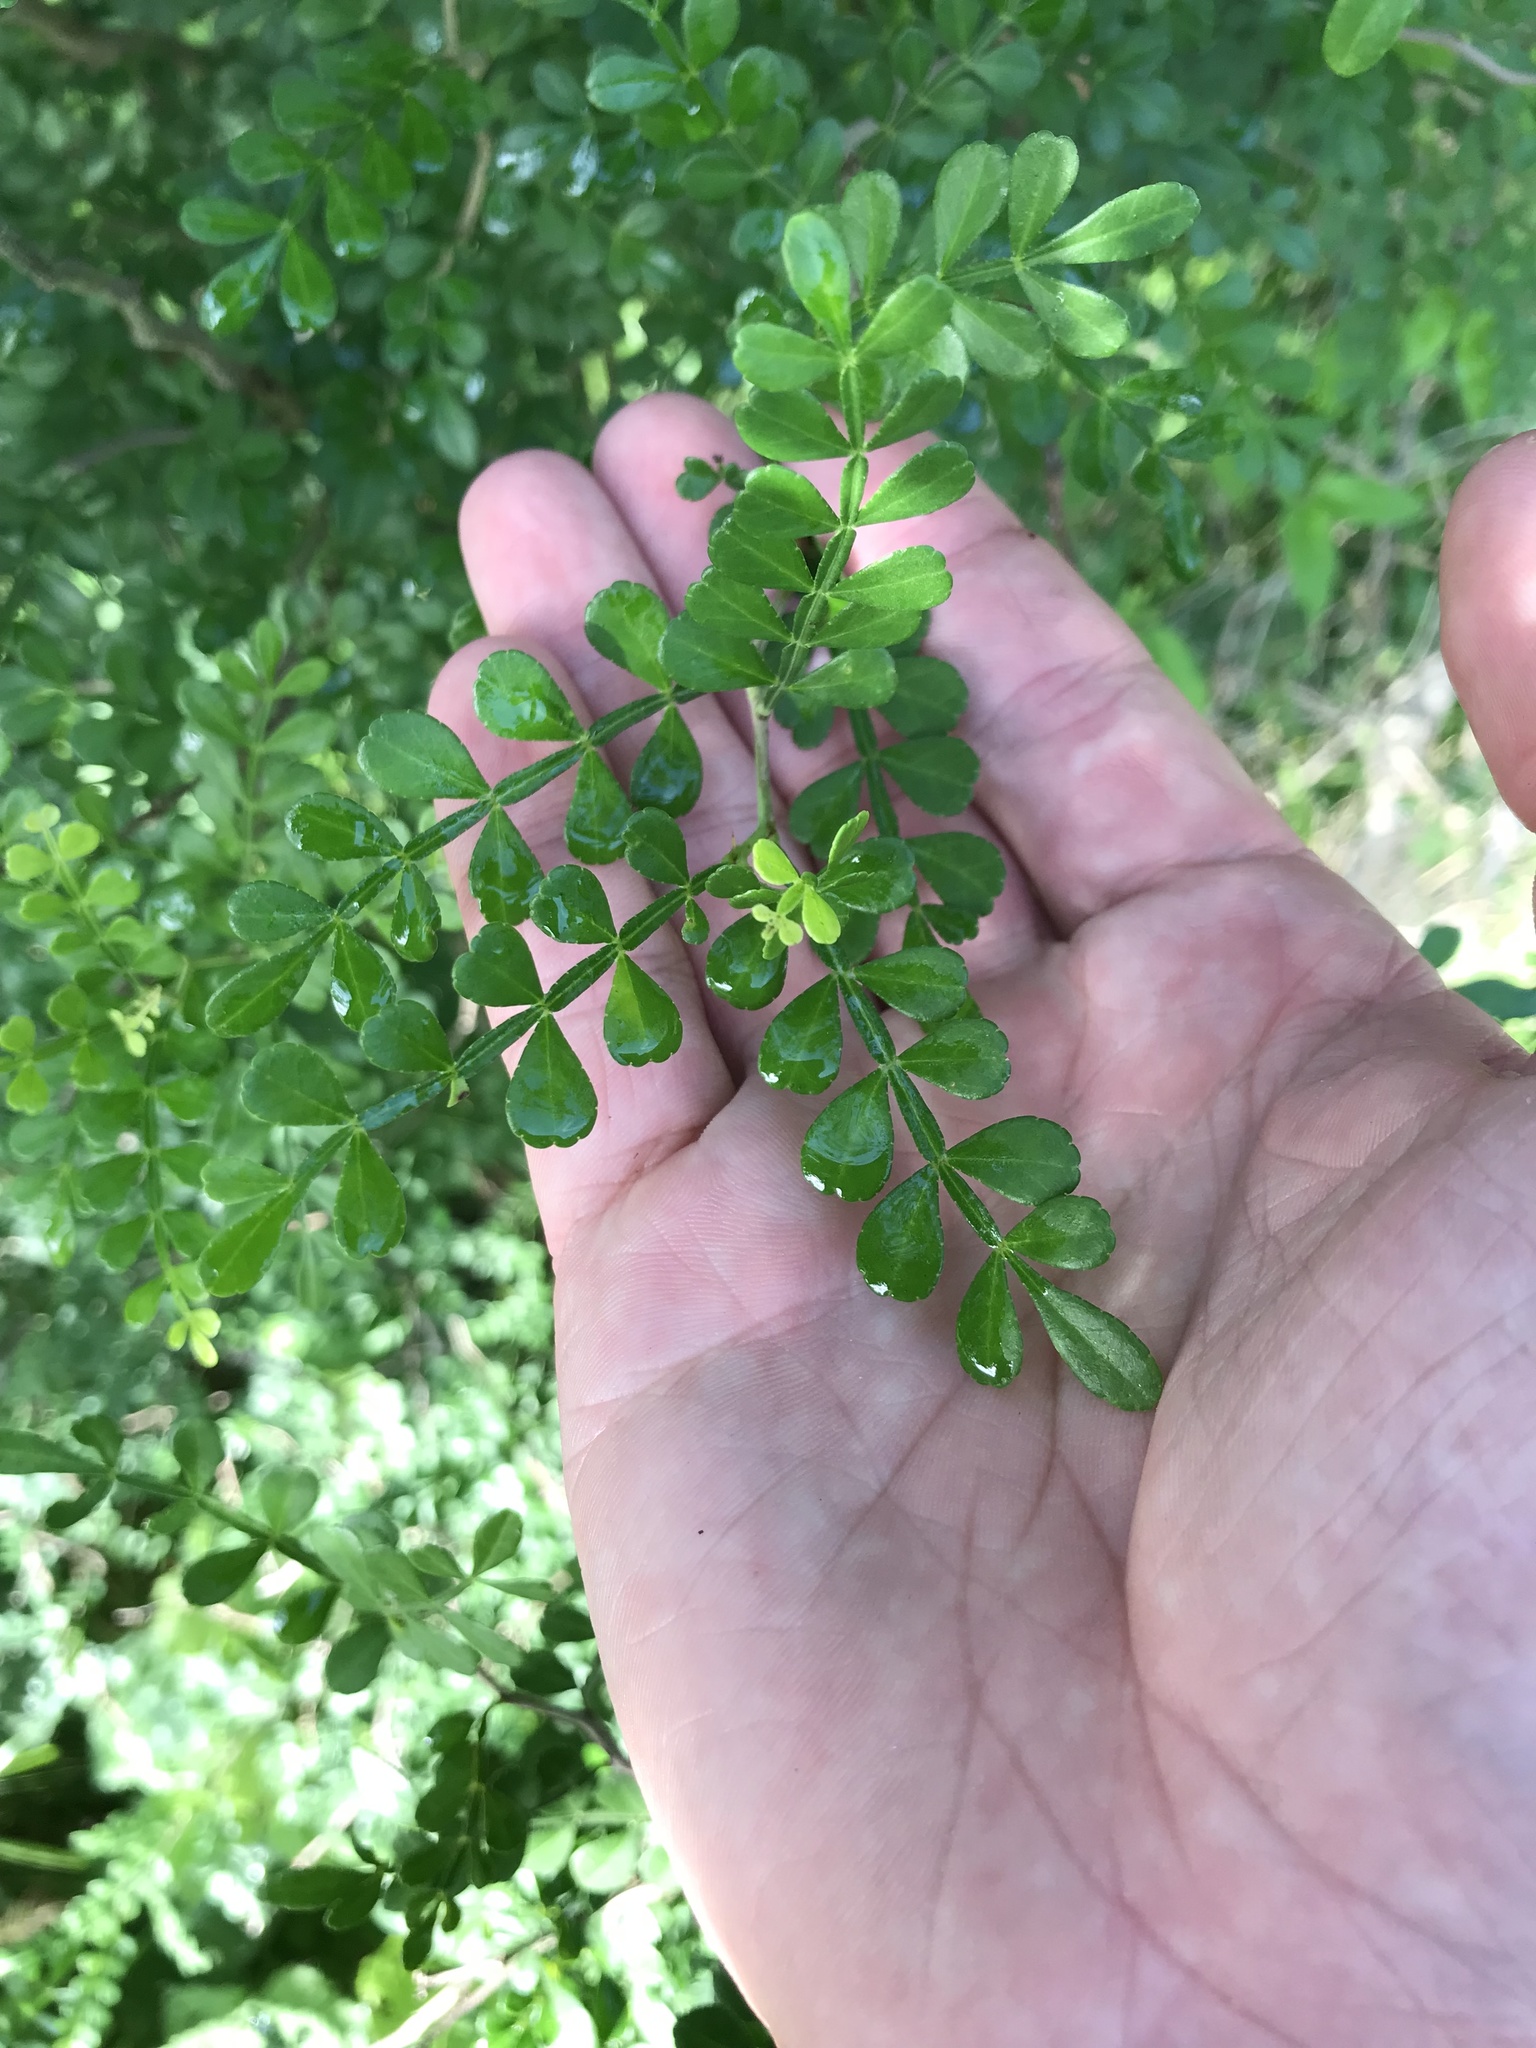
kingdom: Plantae
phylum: Tracheophyta
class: Magnoliopsida
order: Sapindales
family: Rutaceae
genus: Zanthoxylum
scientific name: Zanthoxylum fagara
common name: Lime prickly-ash
